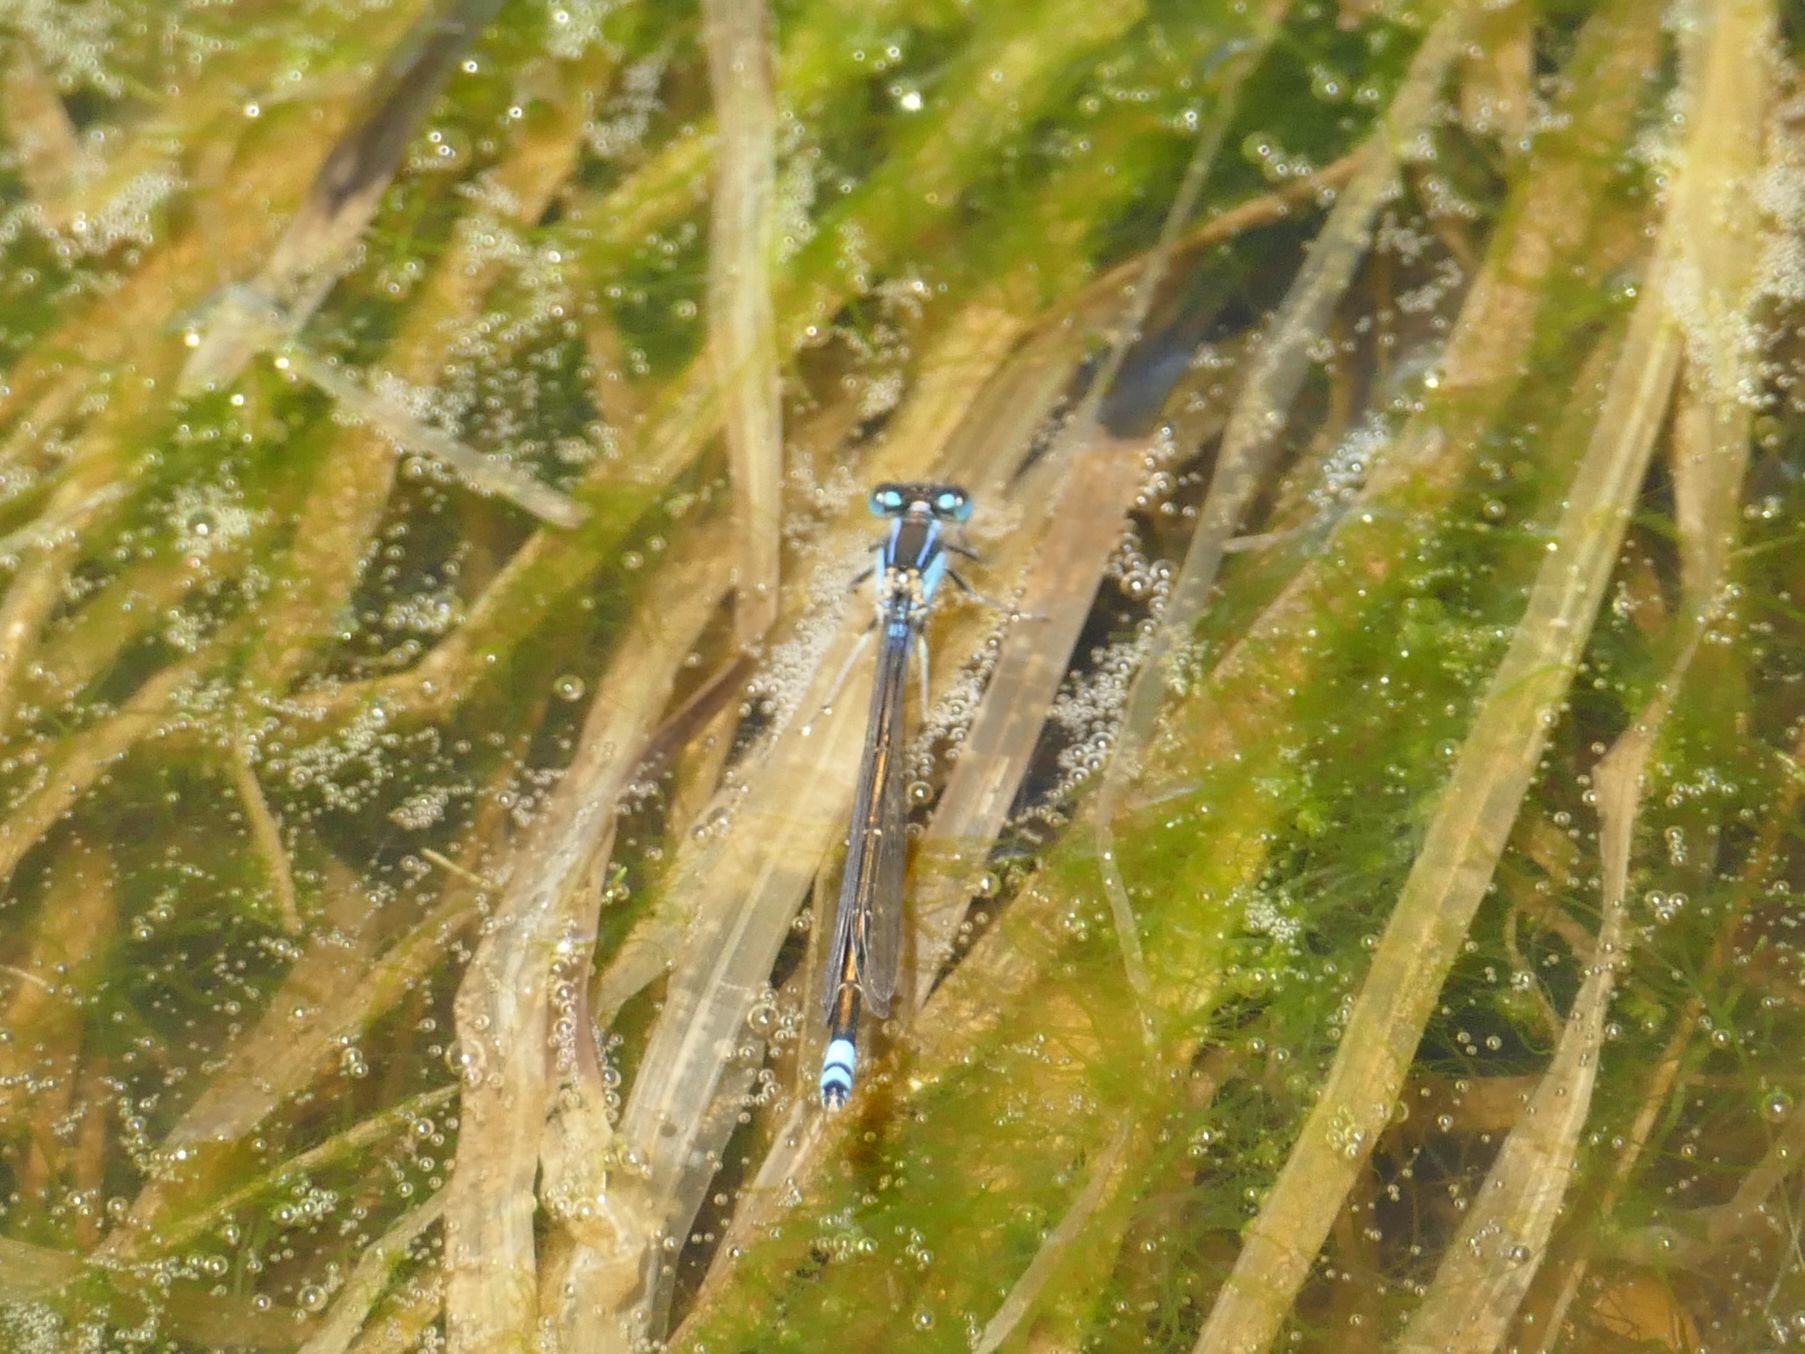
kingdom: Animalia
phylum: Arthropoda
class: Insecta
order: Odonata
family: Coenagrionidae
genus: Ischnura
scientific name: Ischnura heterosticta
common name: Common bluetail
